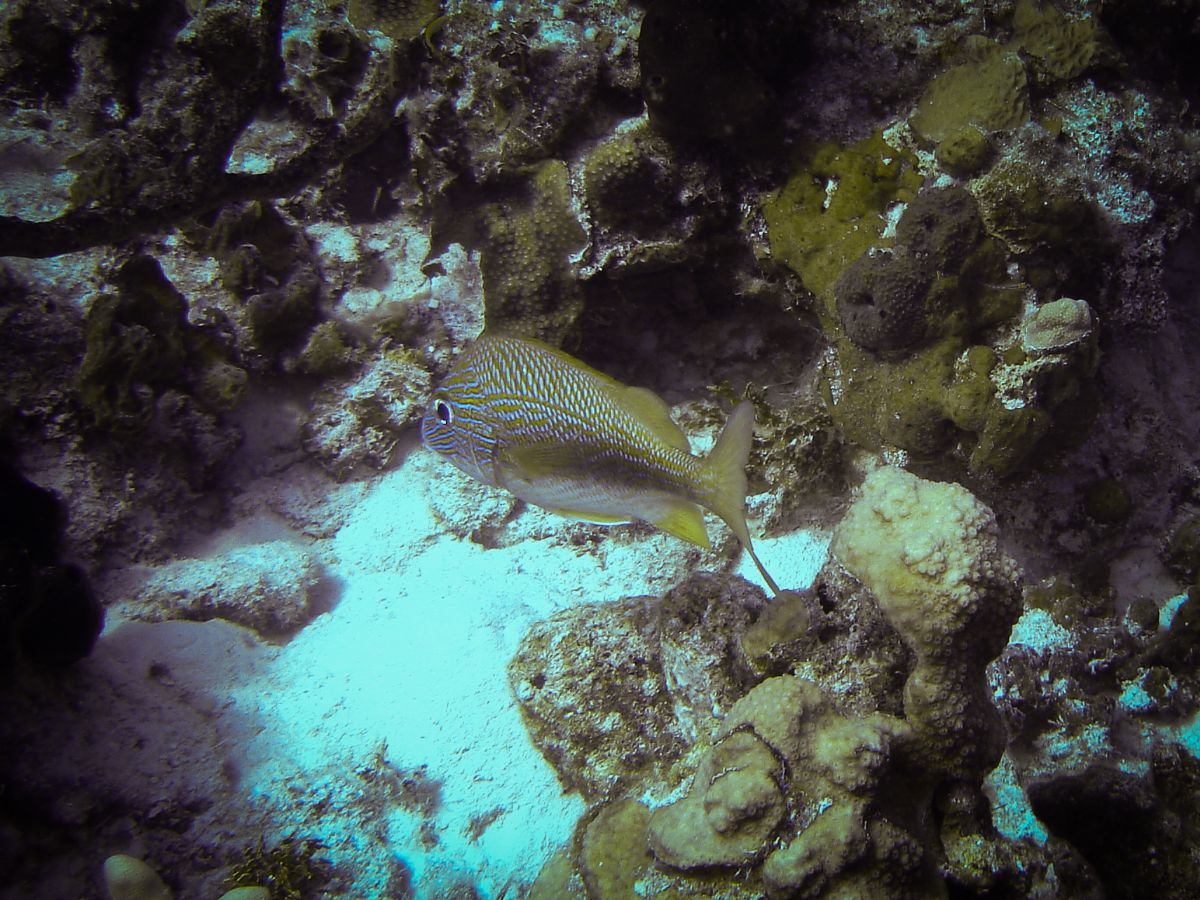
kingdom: Animalia
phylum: Chordata
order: Perciformes
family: Haemulidae
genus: Haemulon
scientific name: Haemulon plumierii
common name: White grunt
